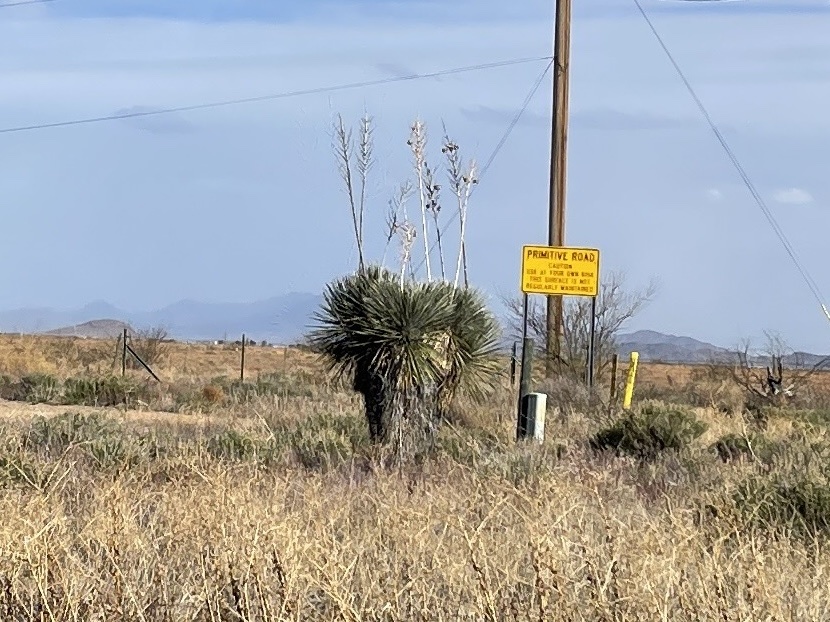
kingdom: Plantae
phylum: Tracheophyta
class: Liliopsida
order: Asparagales
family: Asparagaceae
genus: Yucca
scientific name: Yucca elata
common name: Palmella
